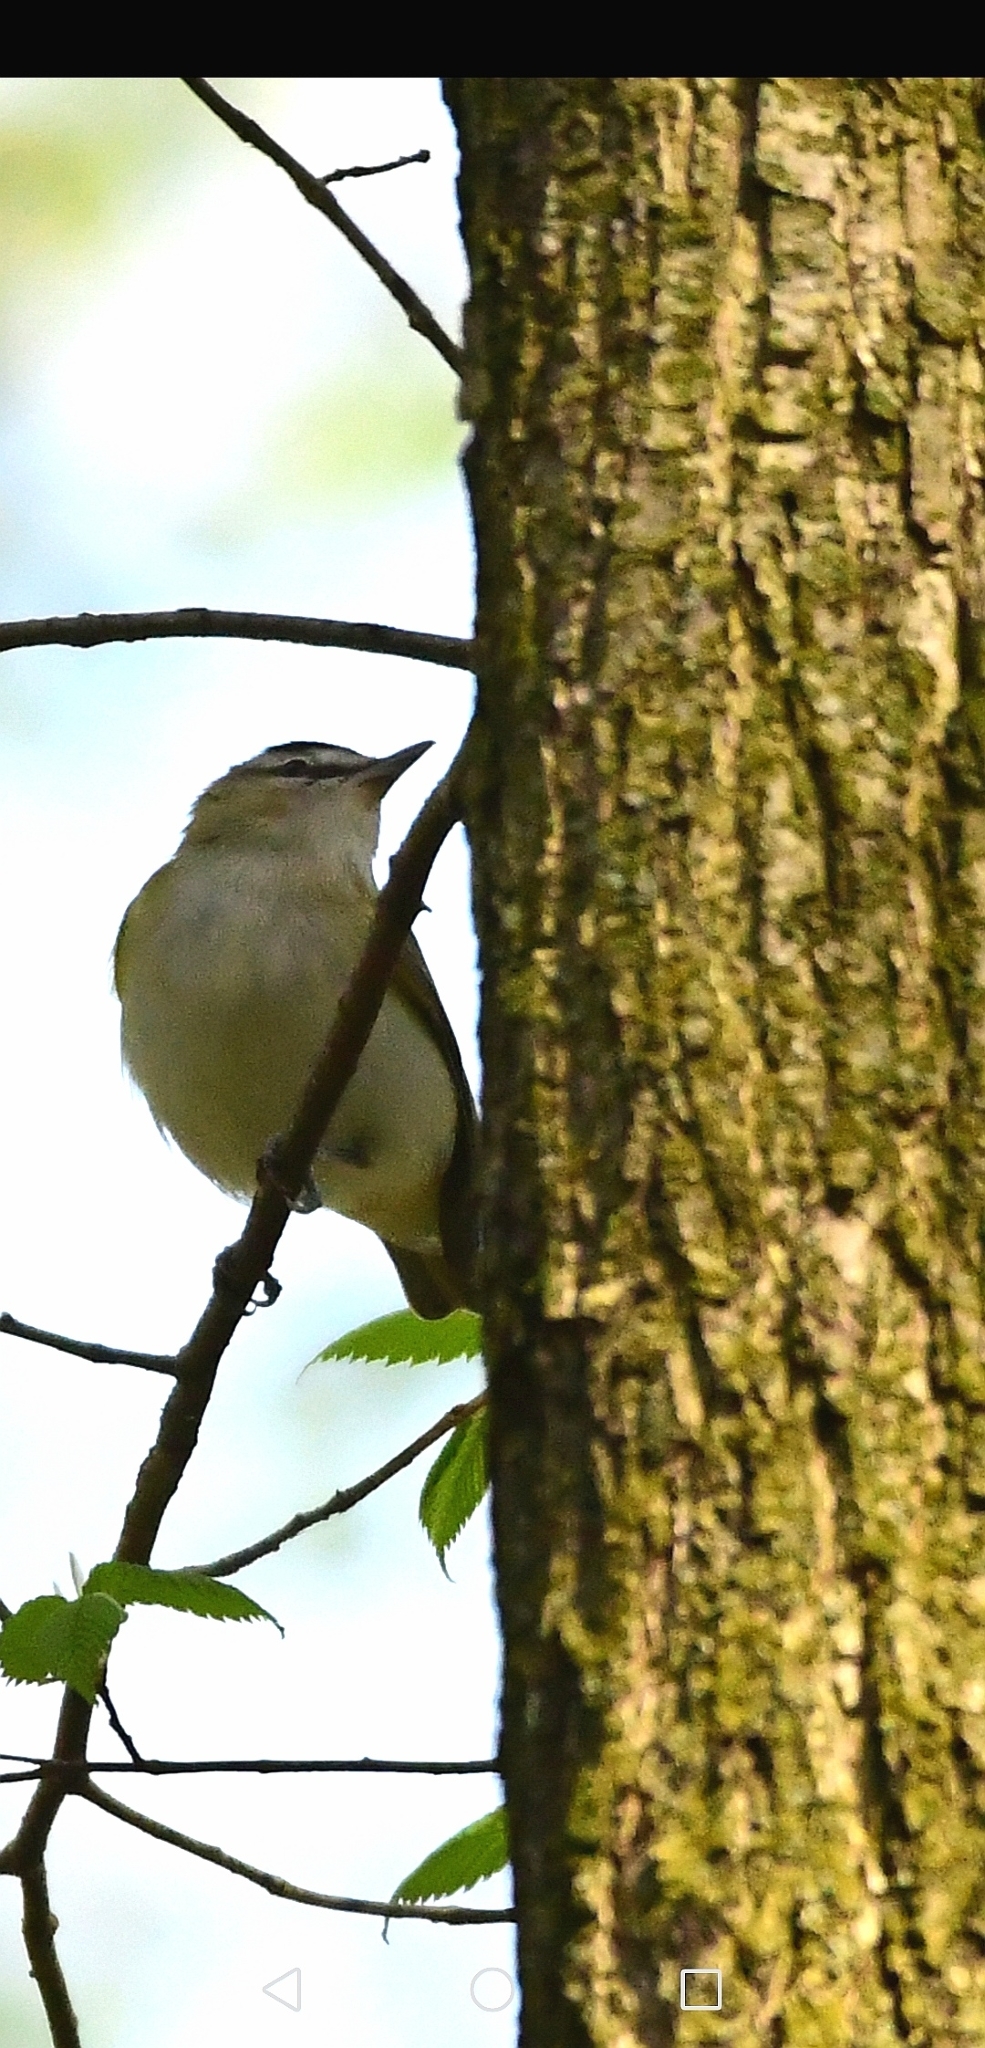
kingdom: Animalia
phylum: Chordata
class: Aves
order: Passeriformes
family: Vireonidae
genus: Vireo
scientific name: Vireo olivaceus
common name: Red-eyed vireo
